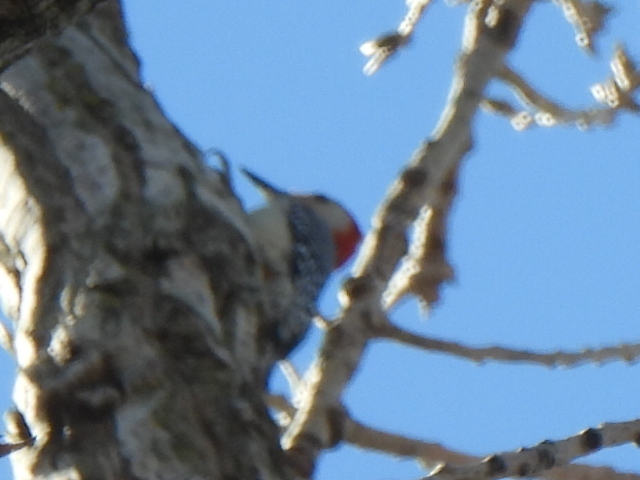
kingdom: Animalia
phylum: Chordata
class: Aves
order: Piciformes
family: Picidae
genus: Melanerpes
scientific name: Melanerpes carolinus
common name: Red-bellied woodpecker
